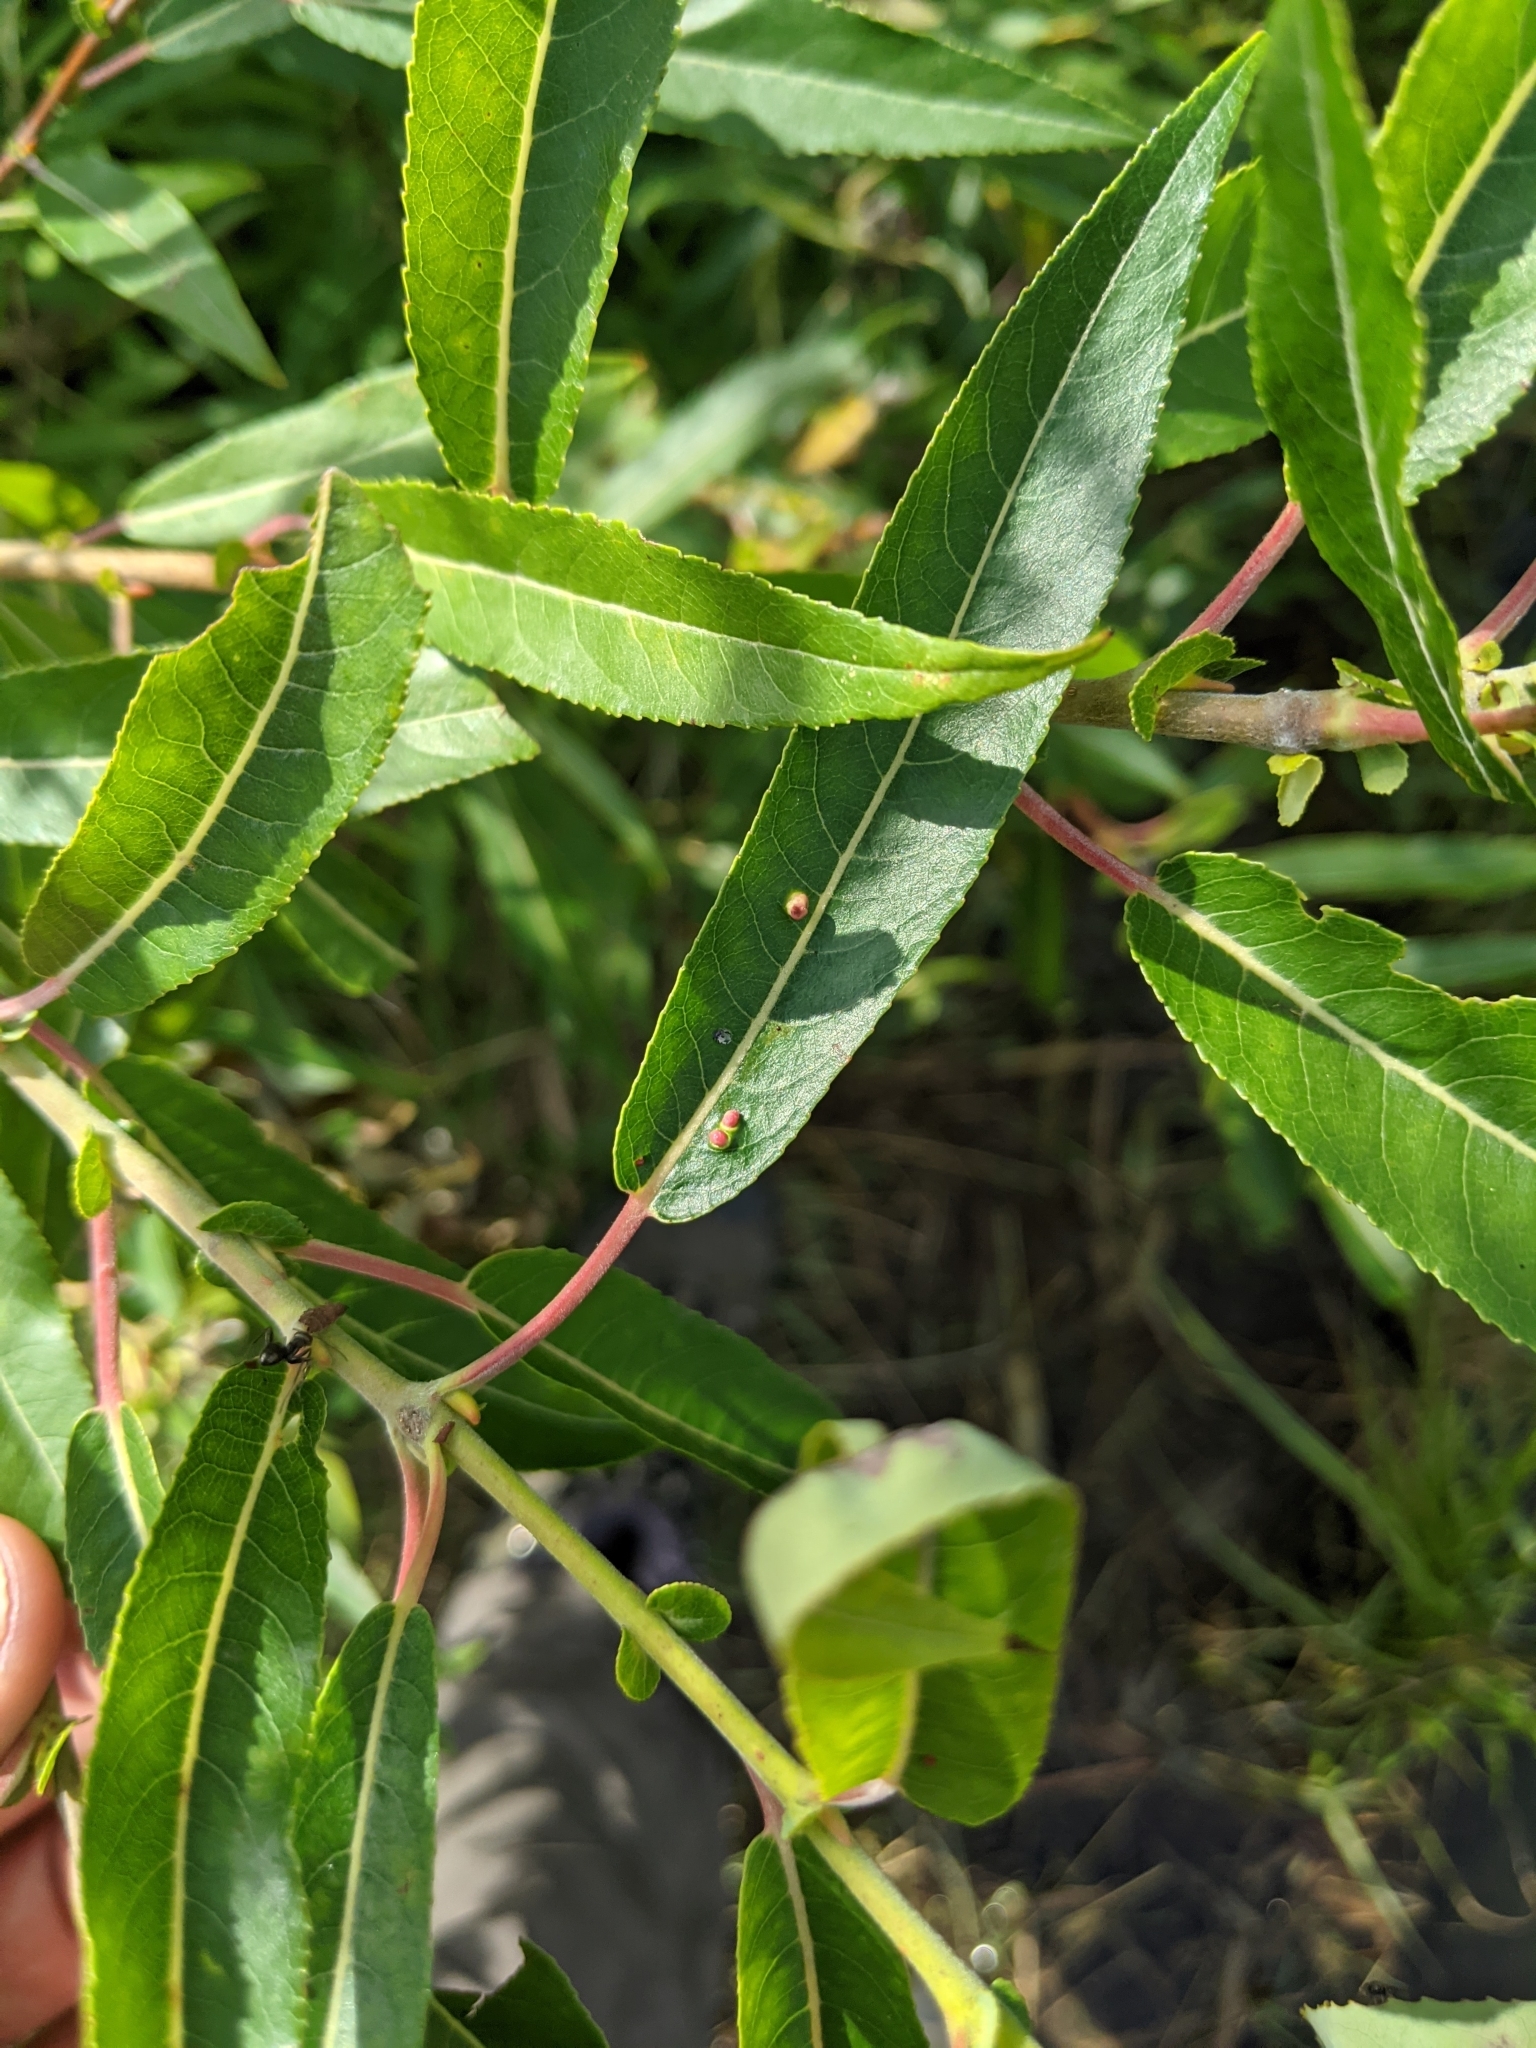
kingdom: Animalia
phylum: Arthropoda
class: Arachnida
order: Trombidiformes
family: Eriophyidae
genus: Aculus
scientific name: Aculus tetanothrix
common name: Willow bead gall mite
